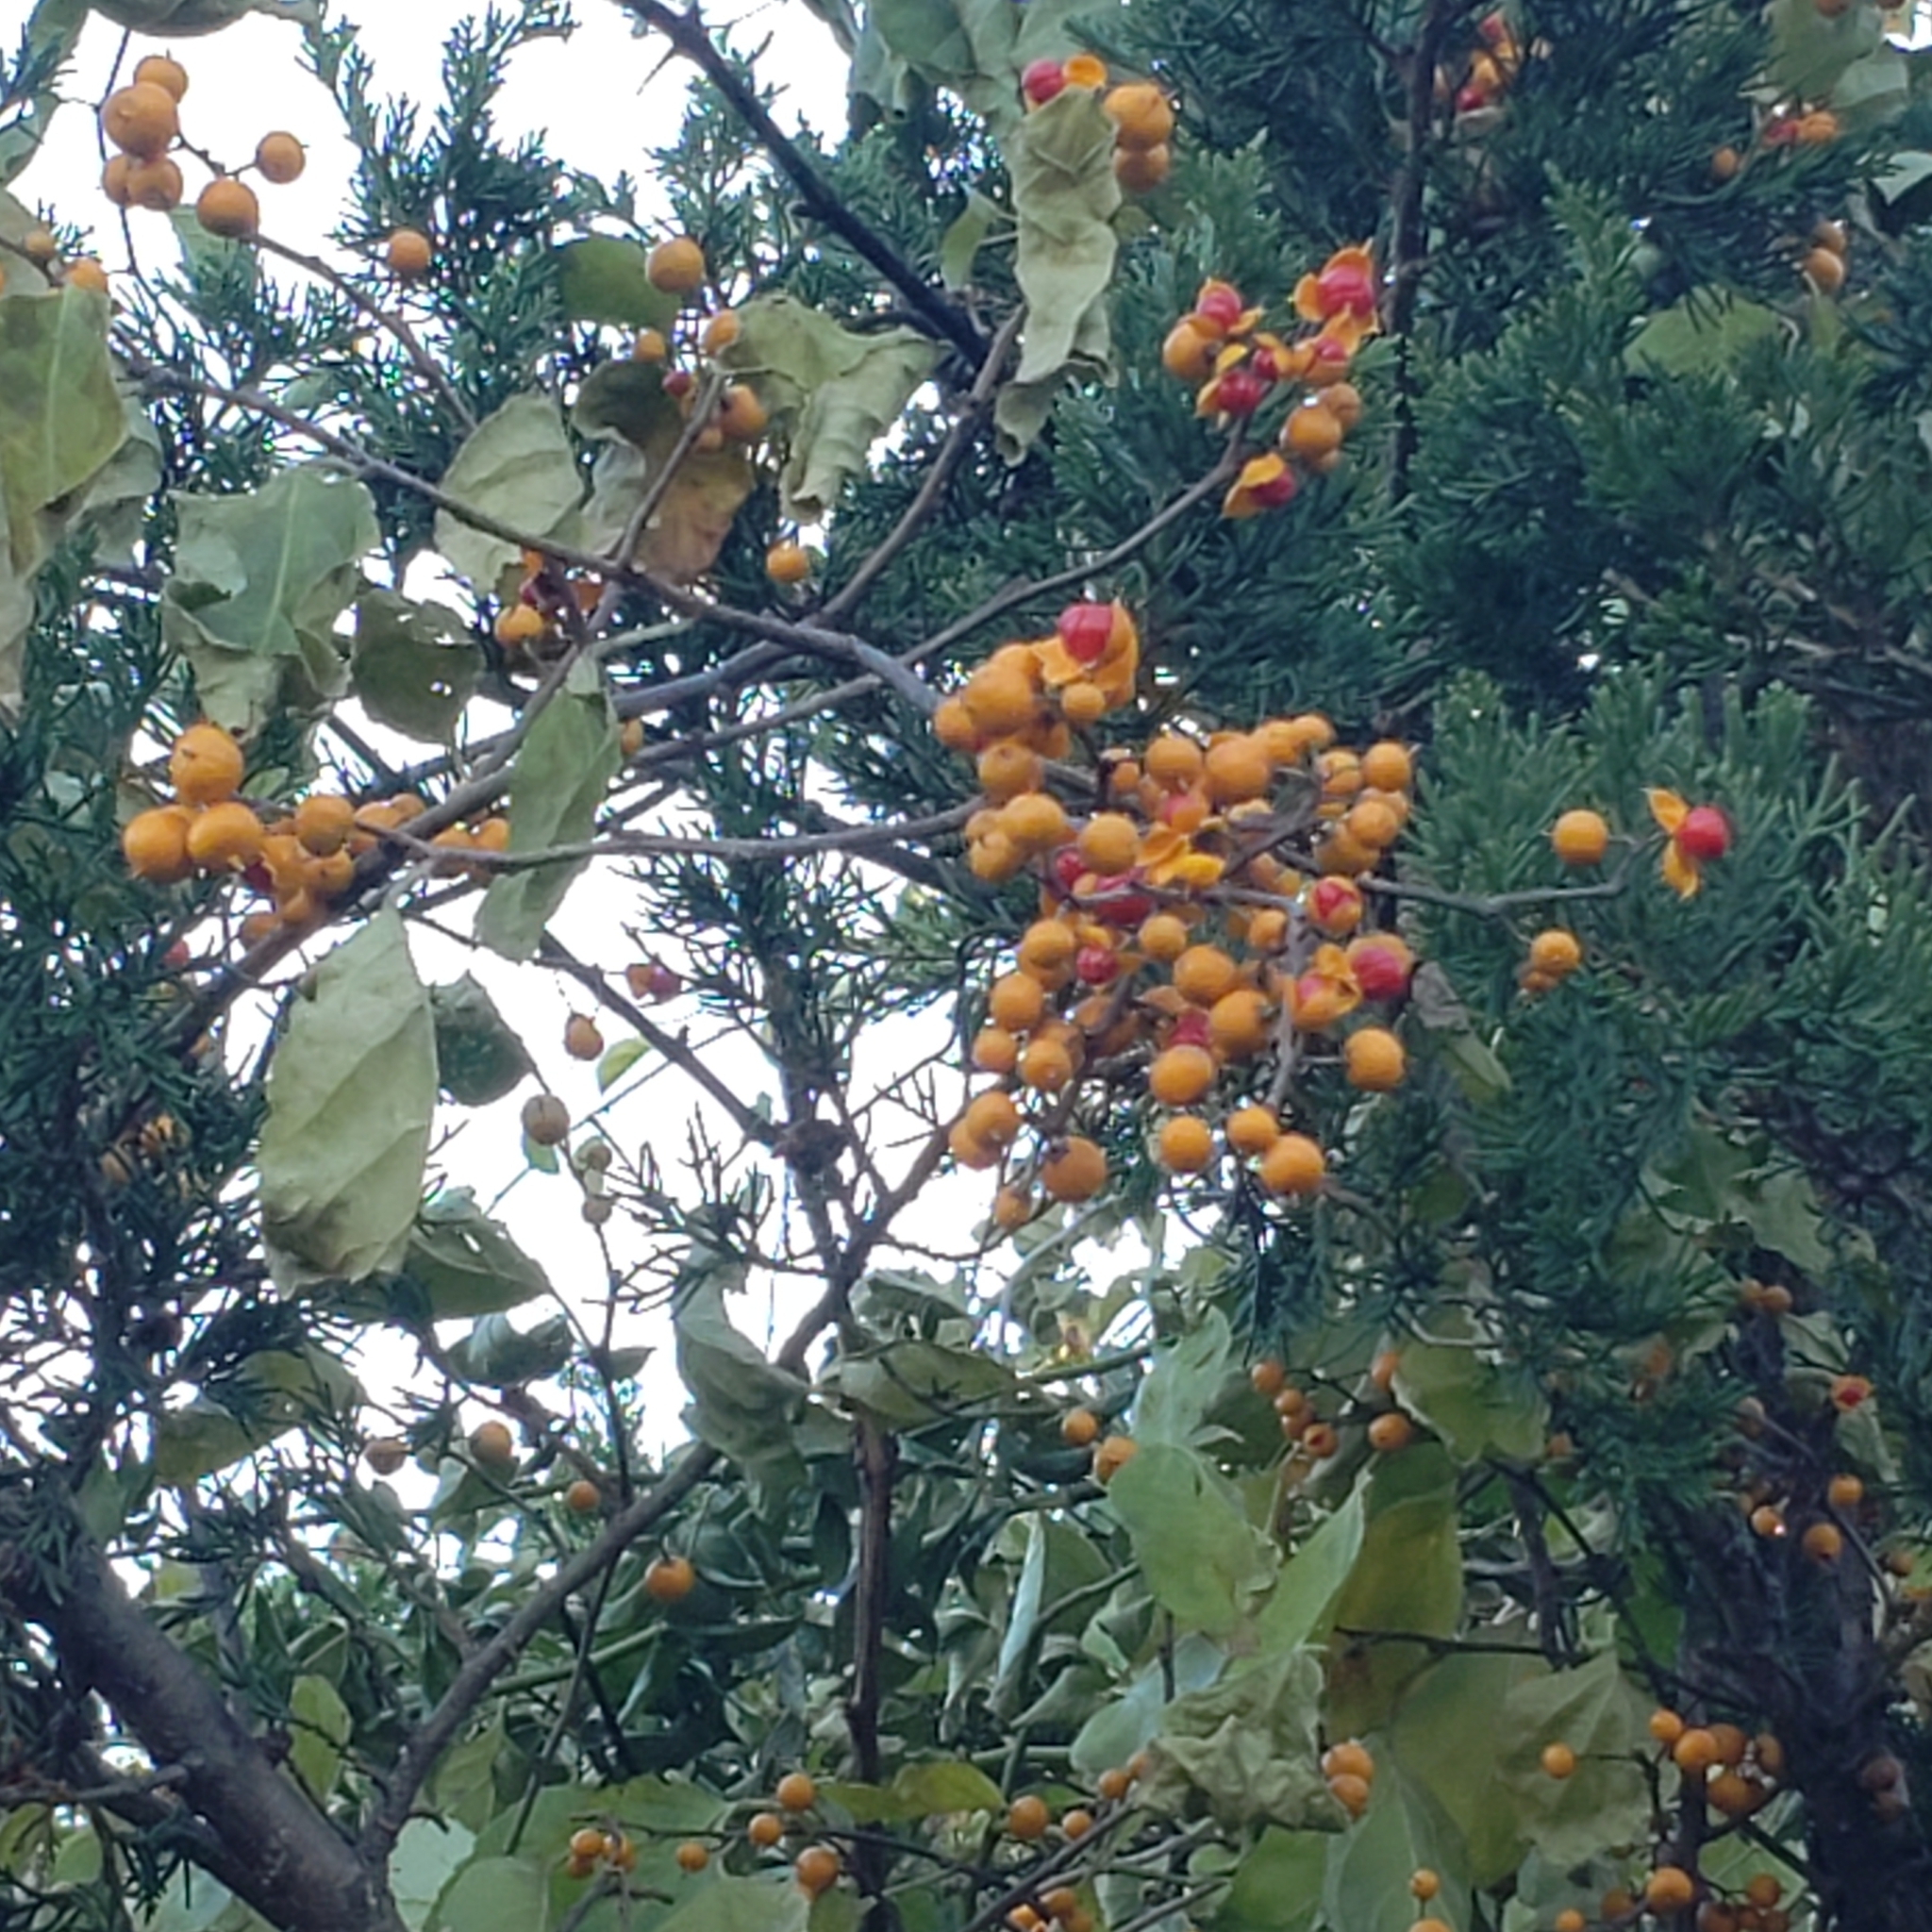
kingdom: Plantae
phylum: Tracheophyta
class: Magnoliopsida
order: Celastrales
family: Celastraceae
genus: Celastrus
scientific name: Celastrus orbiculatus
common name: Oriental bittersweet
